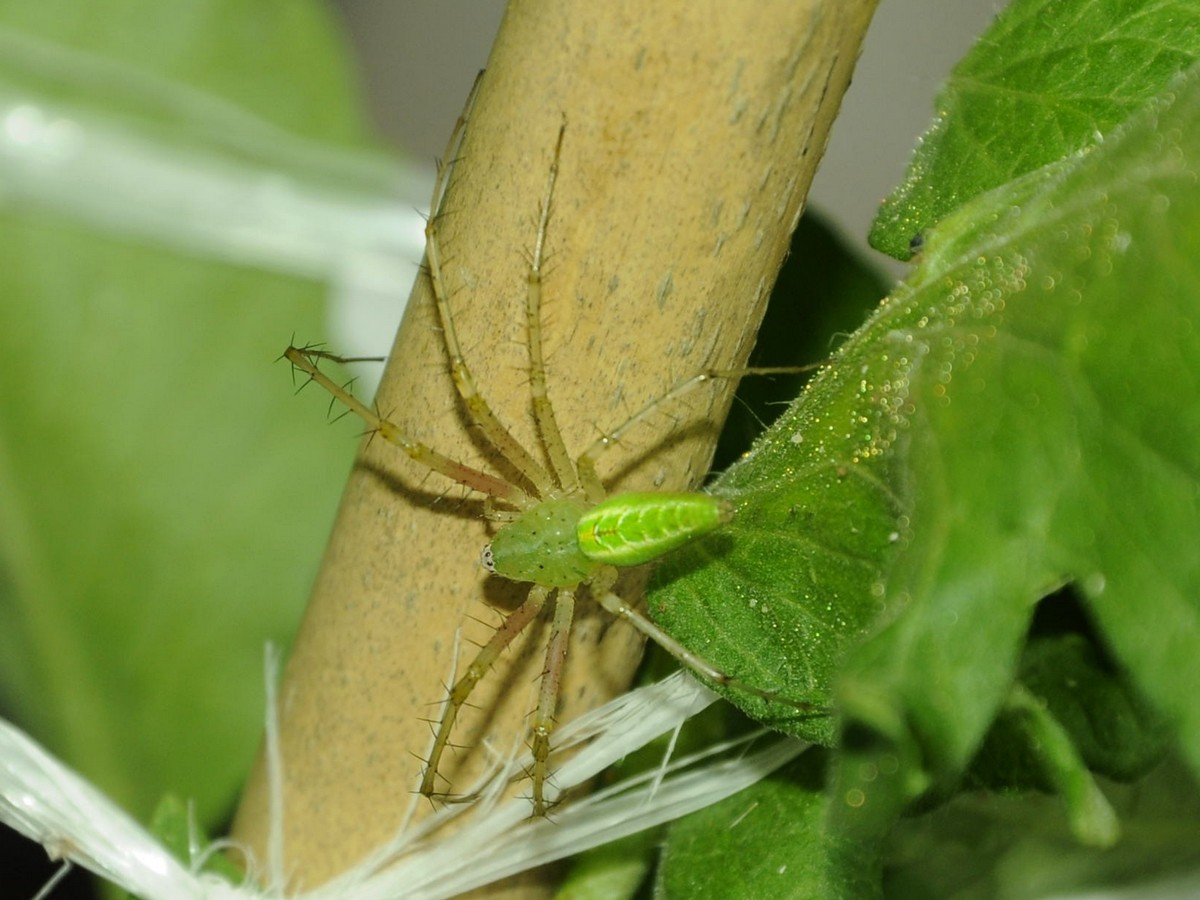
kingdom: Animalia
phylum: Arthropoda
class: Arachnida
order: Araneae
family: Oxyopidae
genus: Peucetia
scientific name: Peucetia viridana
